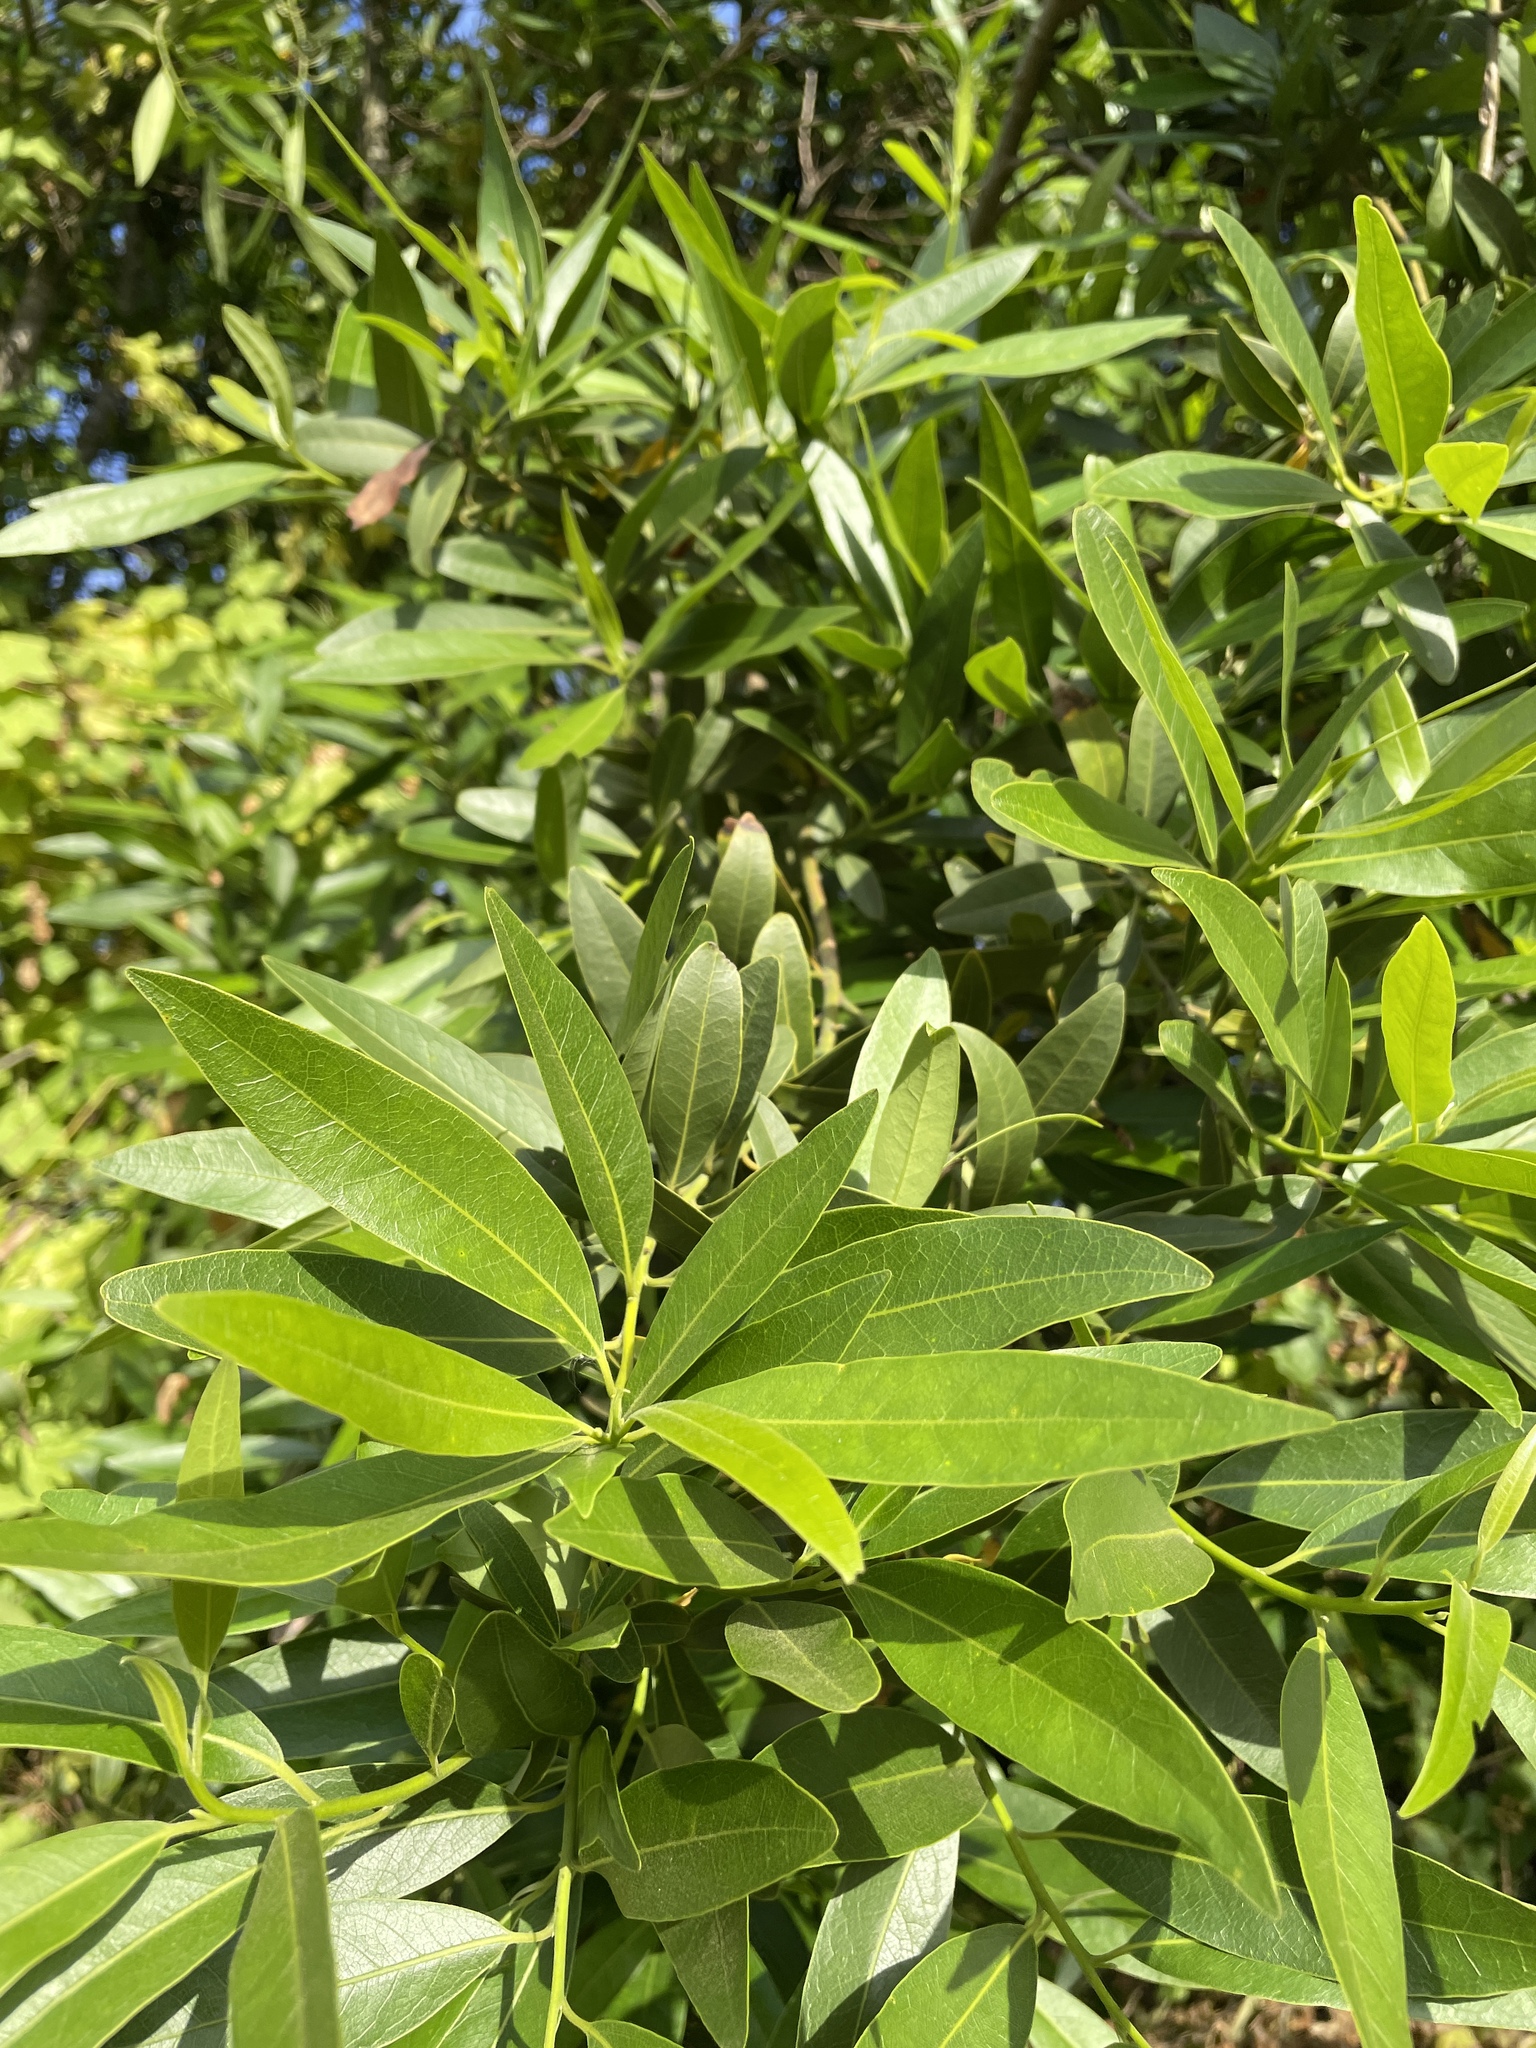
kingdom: Plantae
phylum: Tracheophyta
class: Magnoliopsida
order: Laurales
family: Lauraceae
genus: Umbellularia
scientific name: Umbellularia californica
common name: California bay
